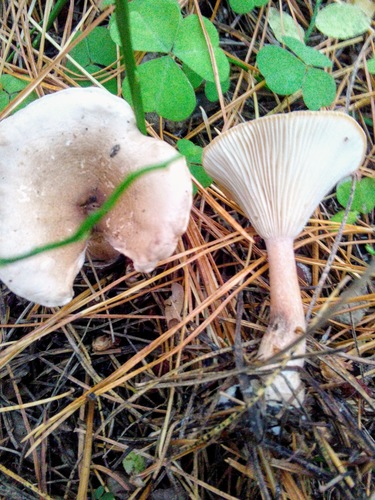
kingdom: Fungi
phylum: Basidiomycota
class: Agaricomycetes
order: Agaricales
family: Hygrophoraceae
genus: Ampulloclitocybe
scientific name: Ampulloclitocybe clavipes
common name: Club foot
